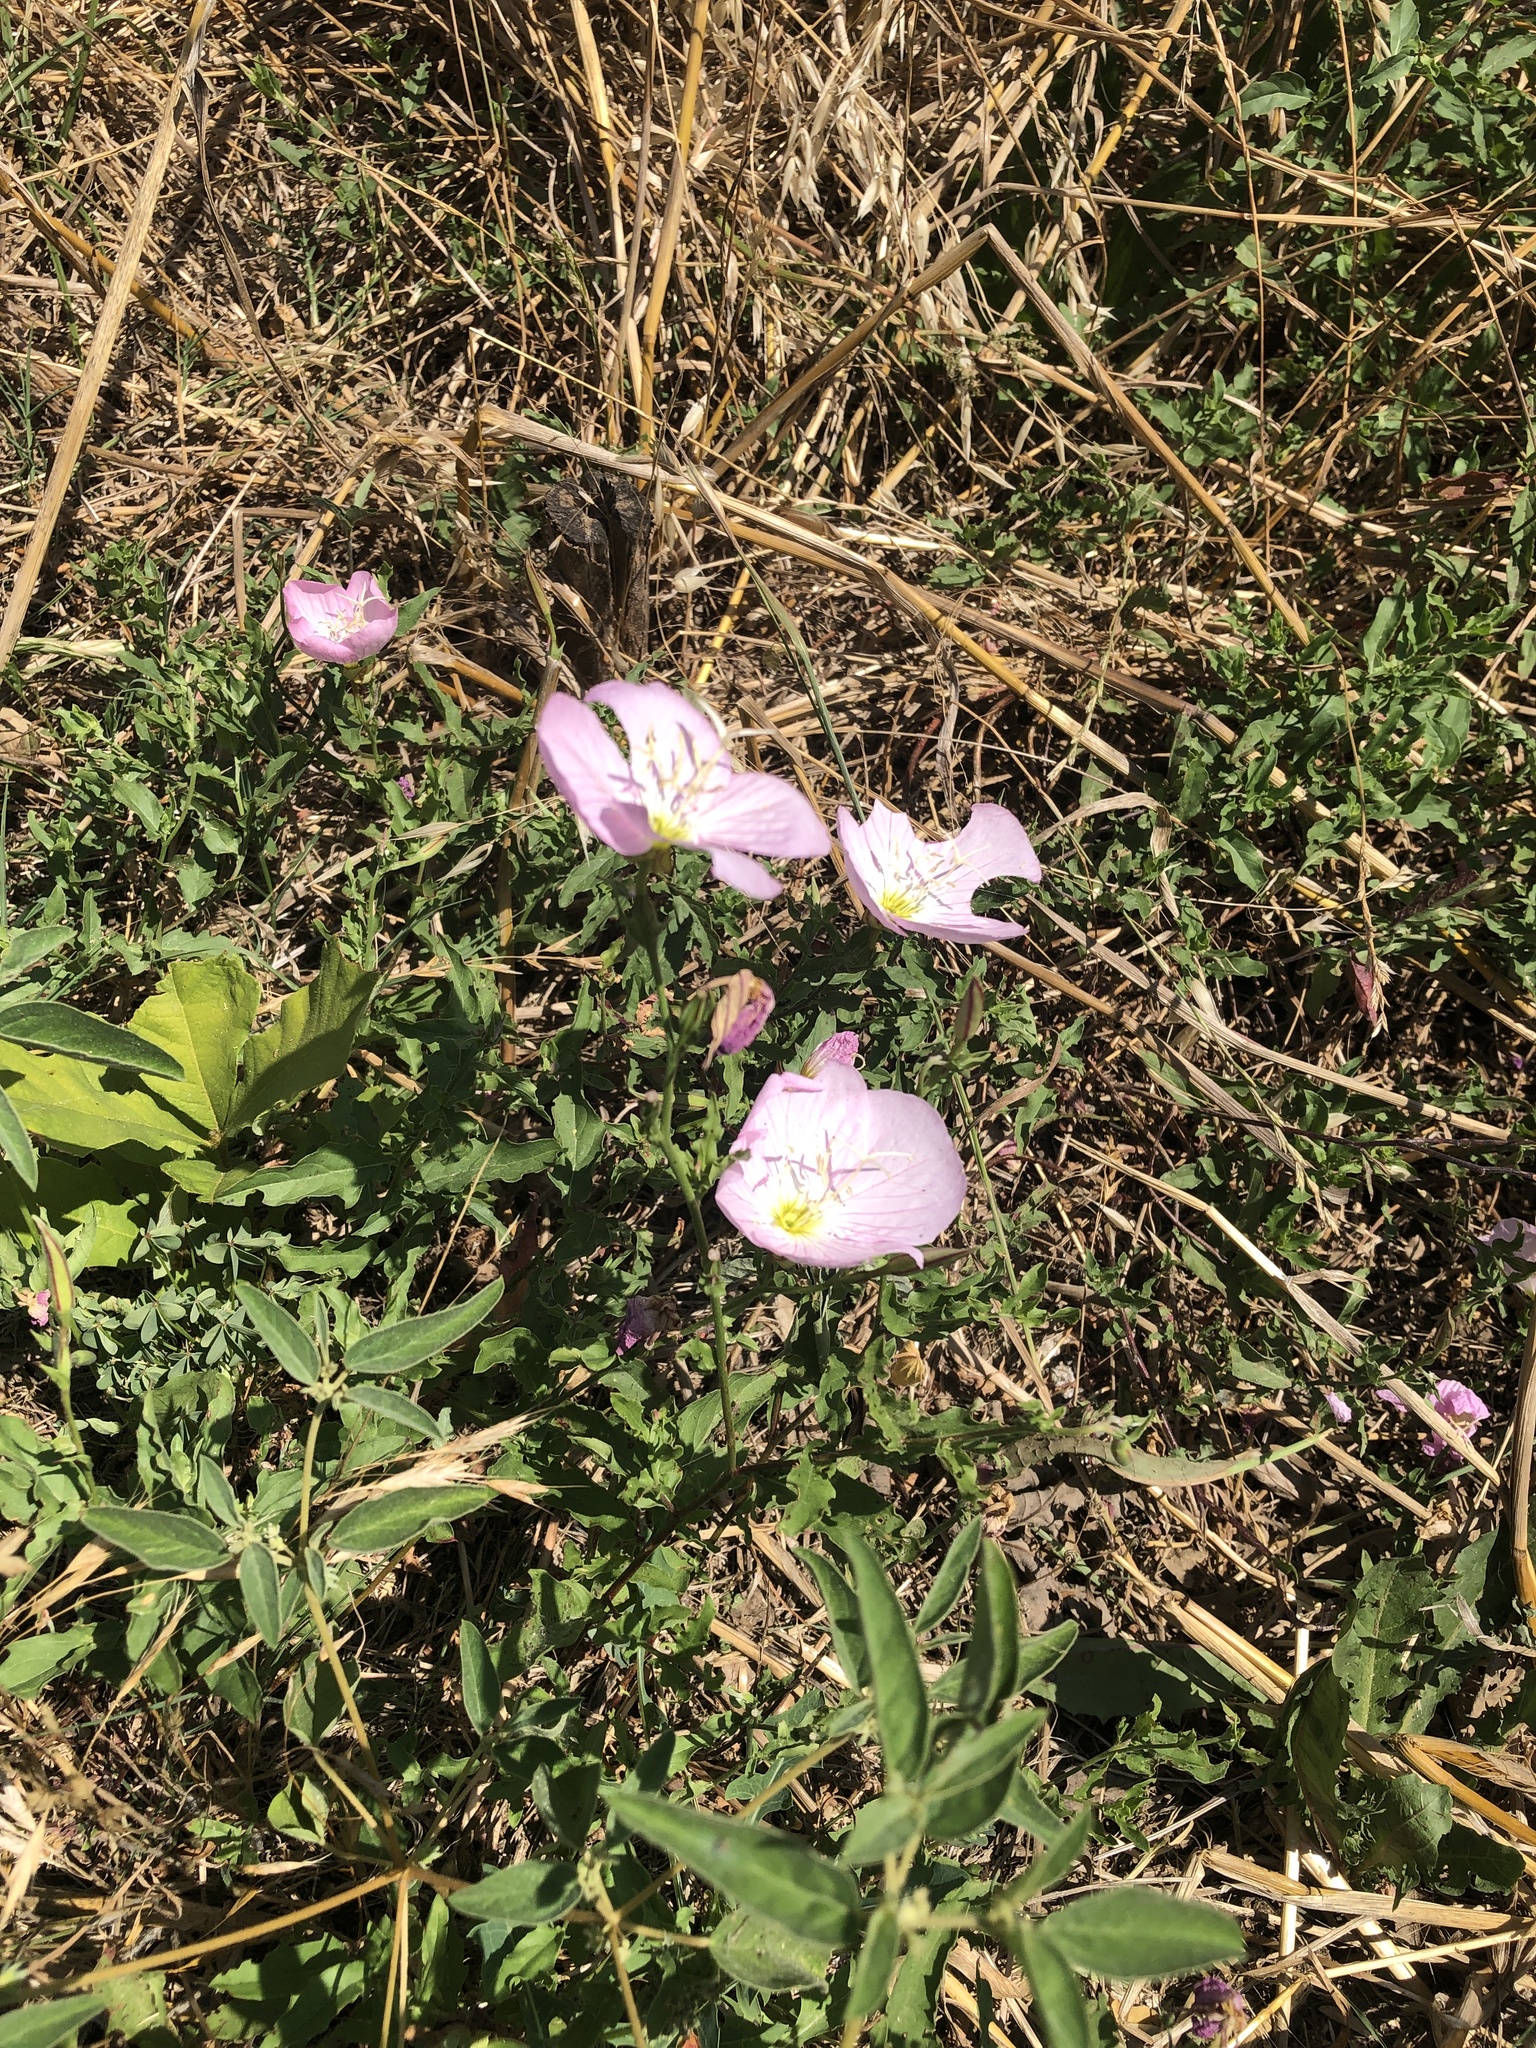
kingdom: Plantae
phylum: Tracheophyta
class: Magnoliopsida
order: Myrtales
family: Onagraceae
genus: Oenothera
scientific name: Oenothera speciosa
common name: White evening-primrose
